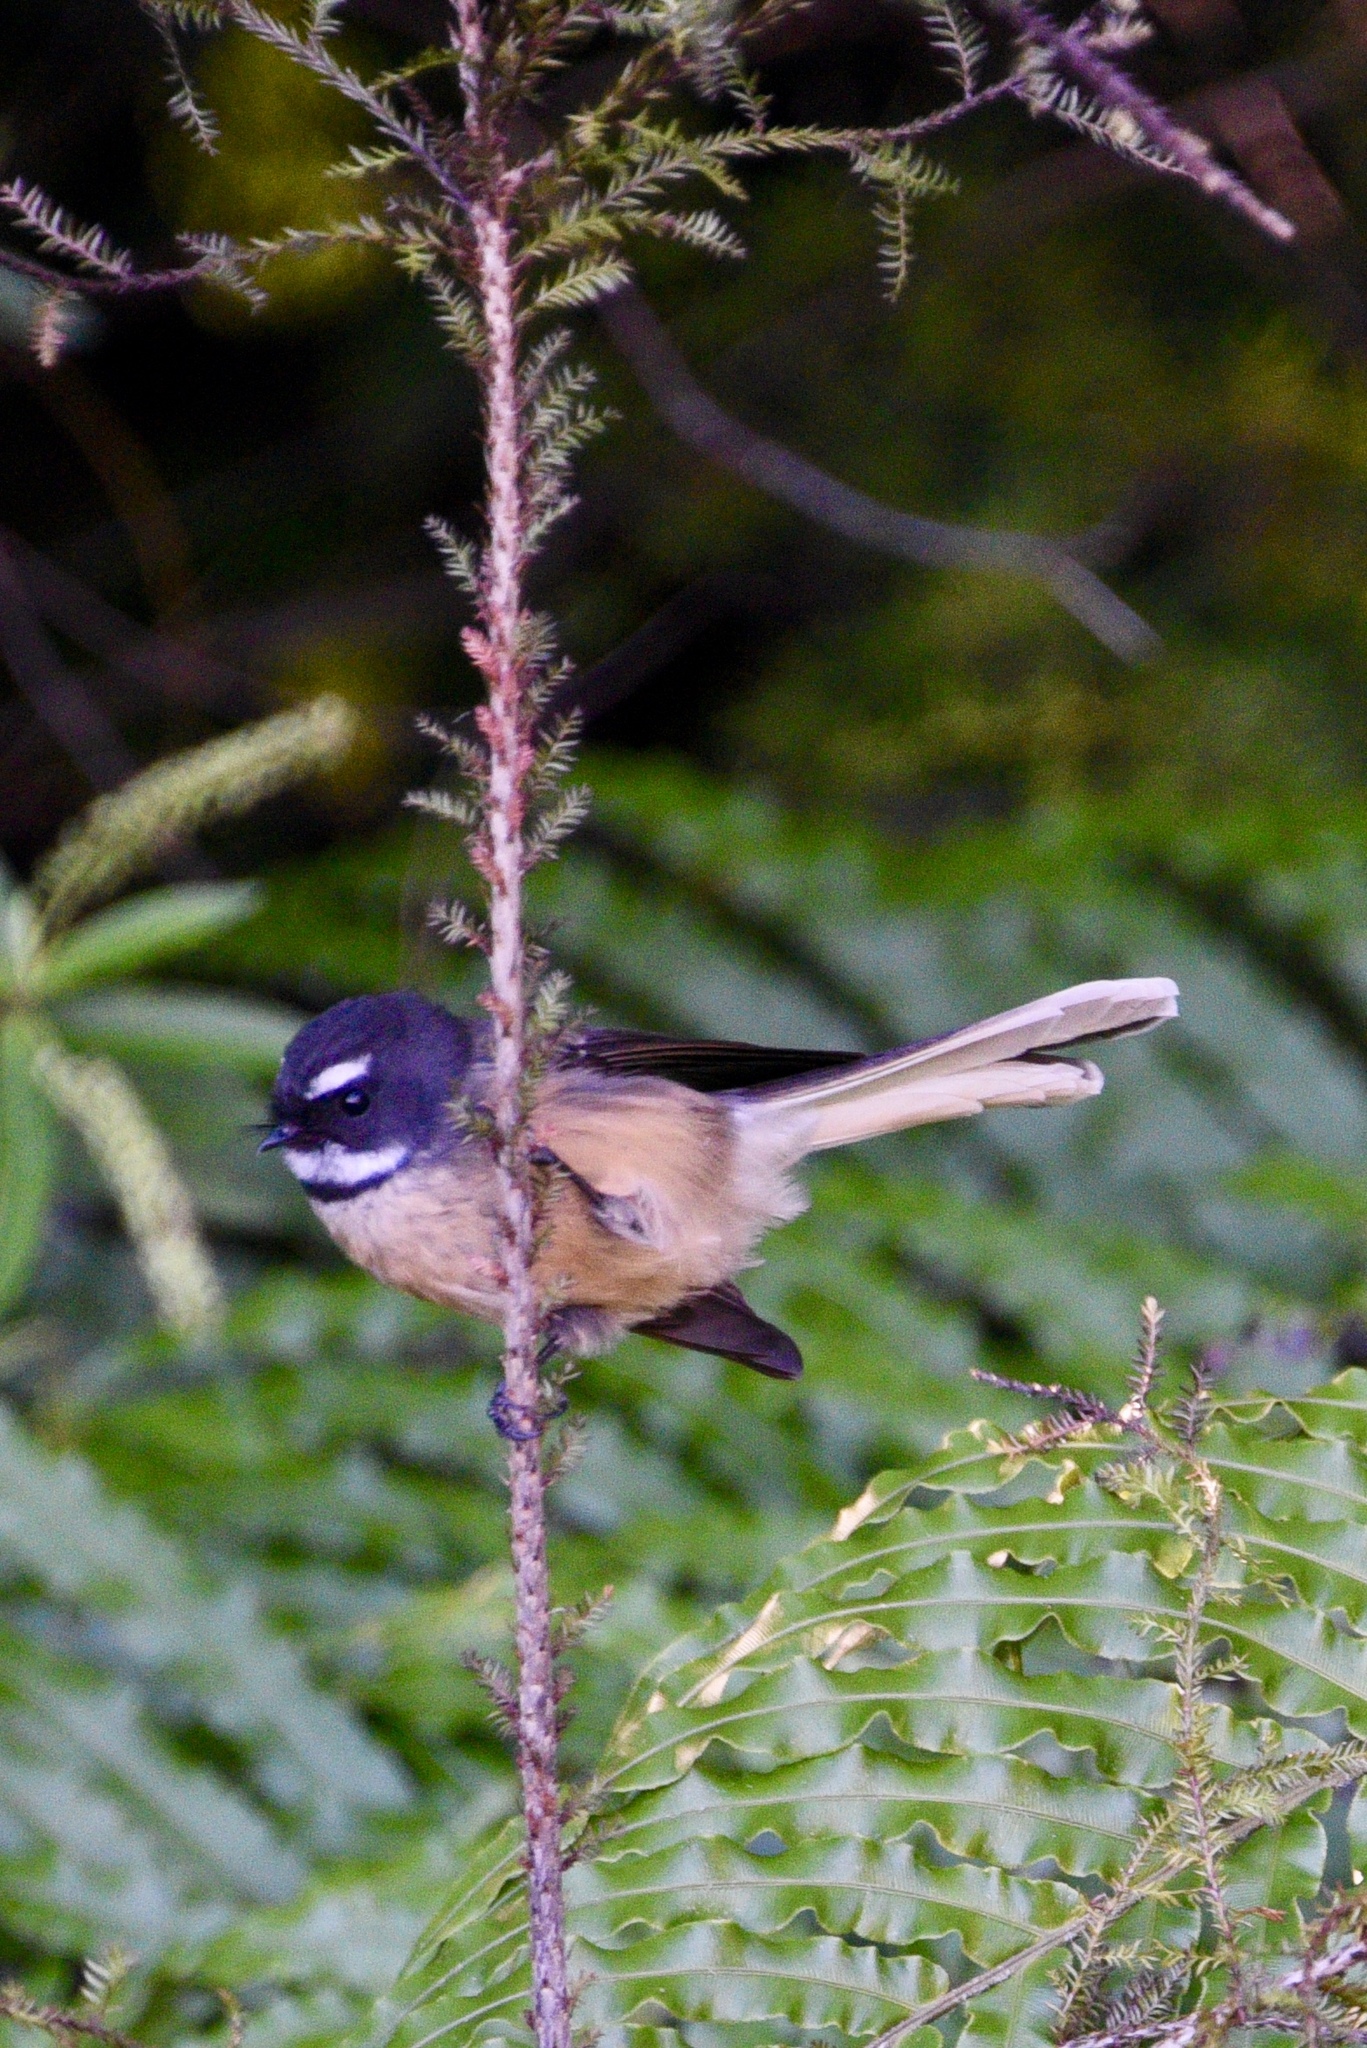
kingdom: Animalia
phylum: Chordata
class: Aves
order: Passeriformes
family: Rhipiduridae
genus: Rhipidura
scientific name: Rhipidura fuliginosa
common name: New zealand fantail
